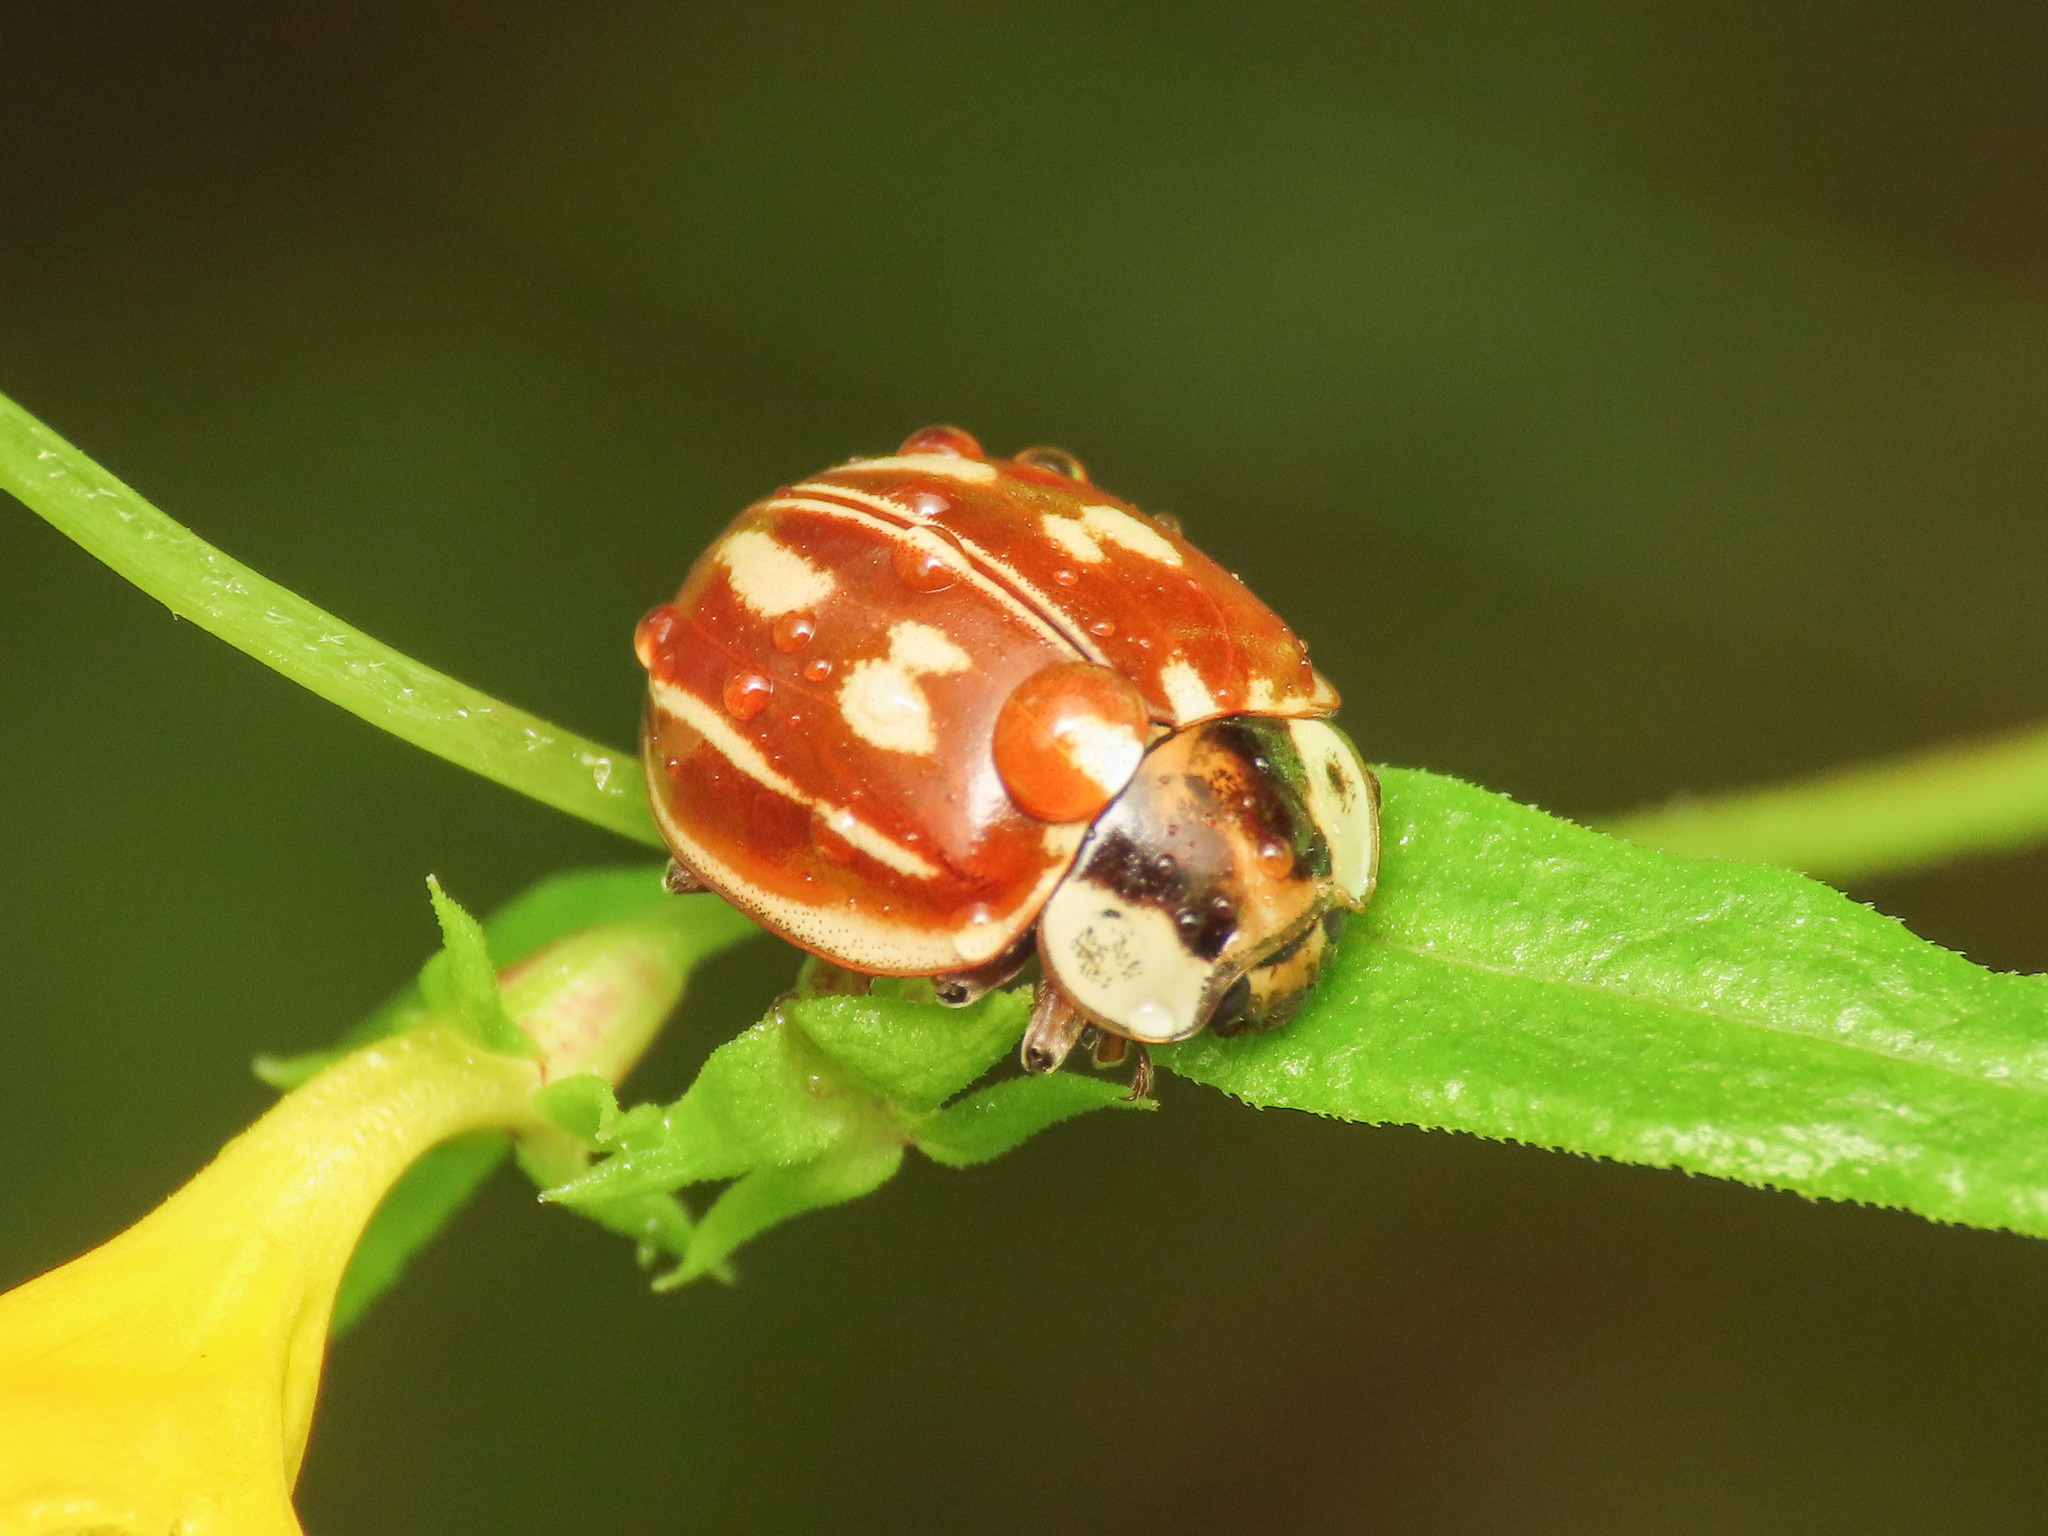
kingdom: Animalia
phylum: Arthropoda
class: Insecta
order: Coleoptera
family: Coccinellidae
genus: Myzia
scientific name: Myzia oblongoguttata
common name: Striped ladybird
